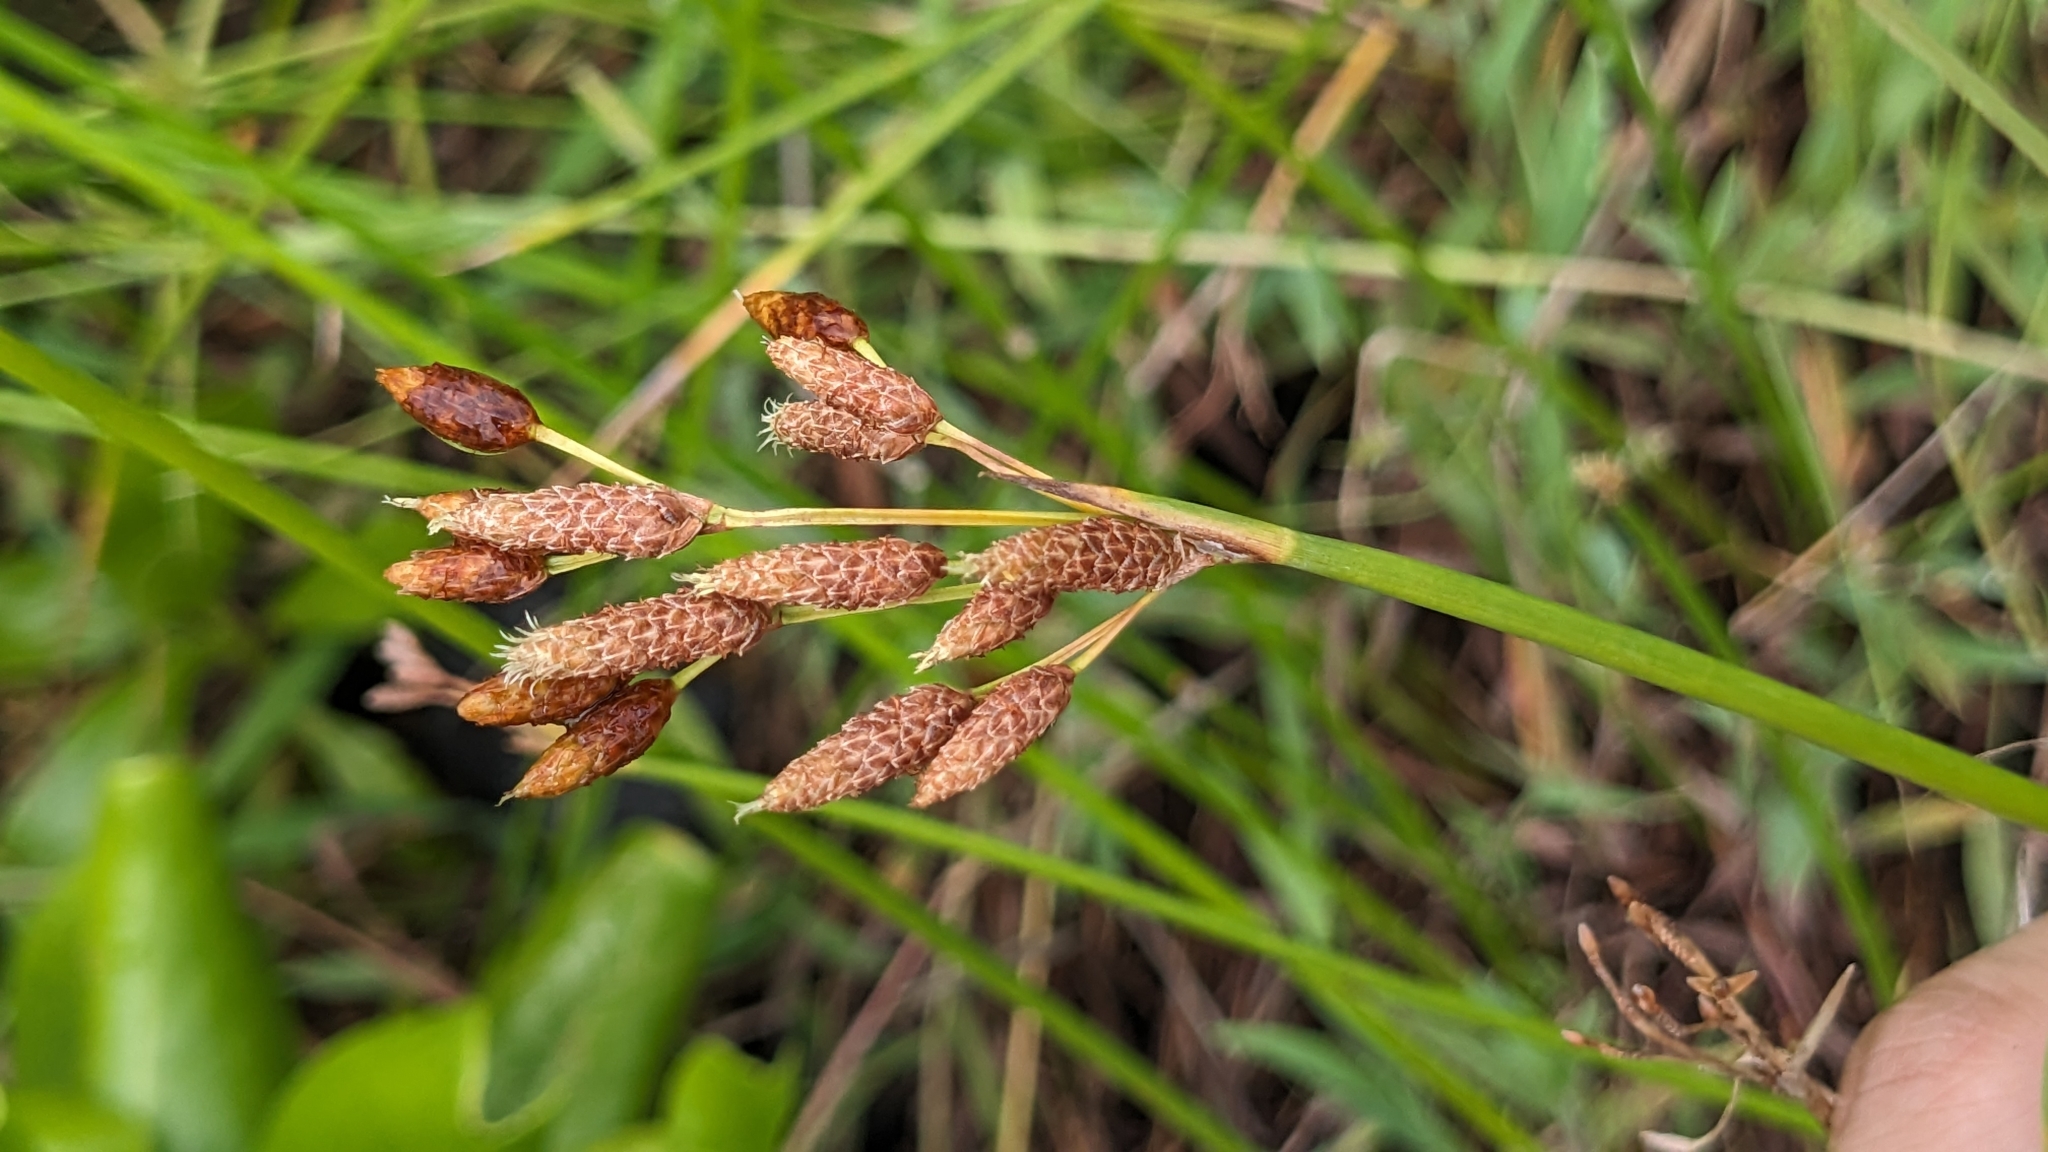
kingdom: Plantae
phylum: Tracheophyta
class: Liliopsida
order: Poales
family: Cyperaceae
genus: Schoenoplectus
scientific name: Schoenoplectus tabernaemontani
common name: Grey club-rush
